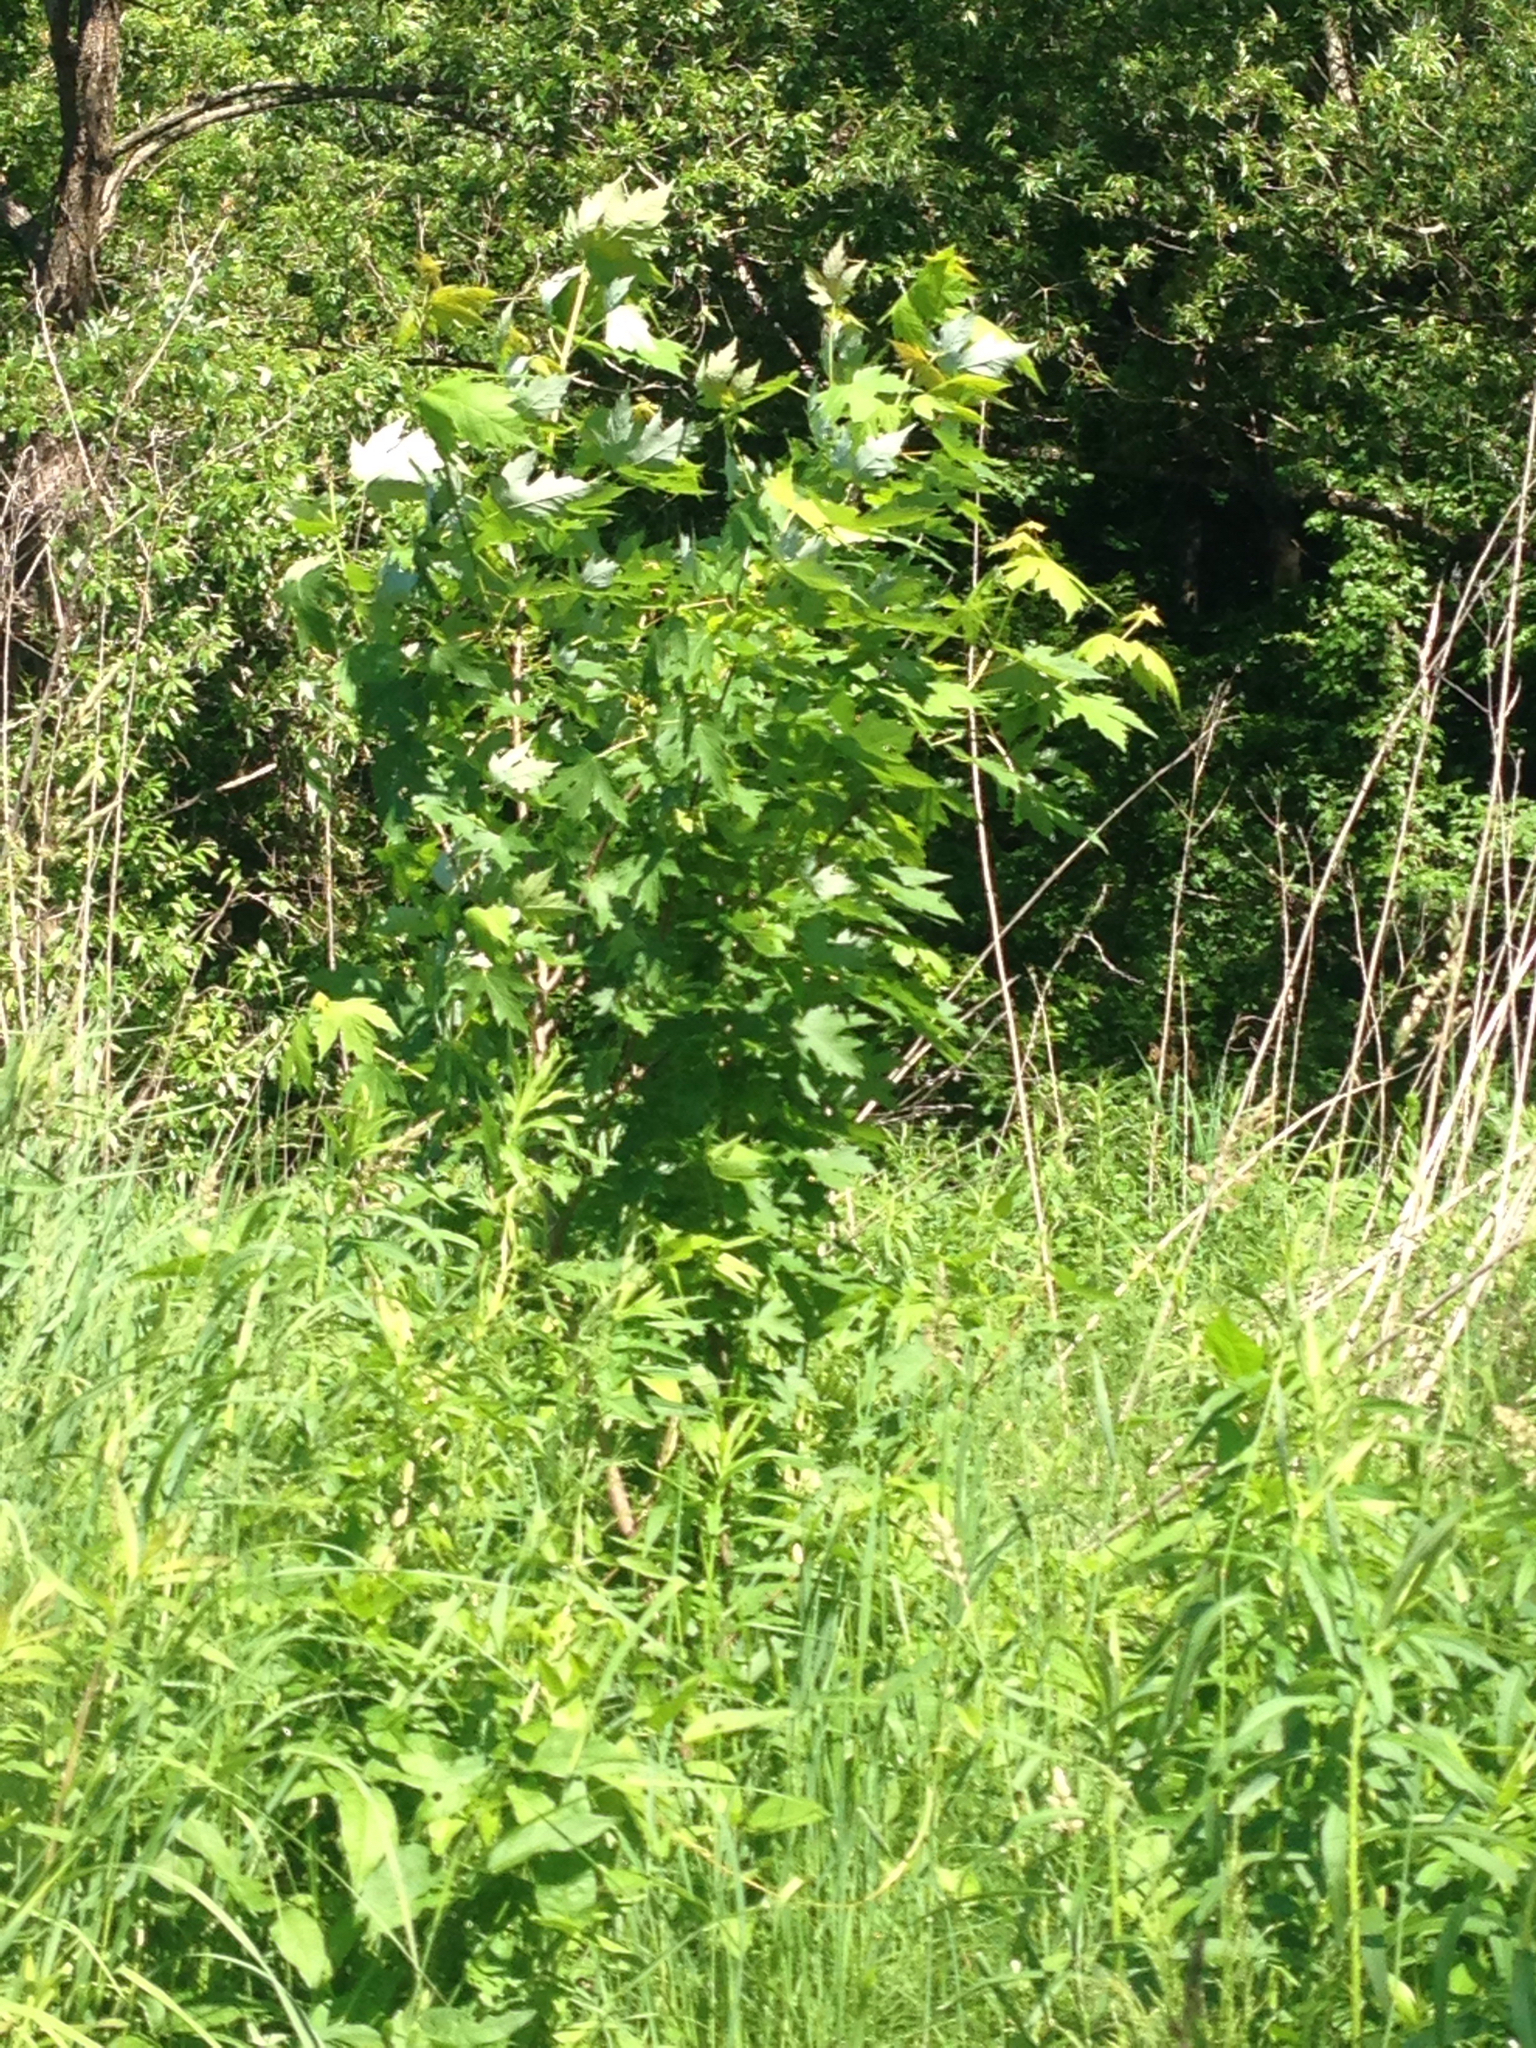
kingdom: Plantae
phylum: Tracheophyta
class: Magnoliopsida
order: Sapindales
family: Sapindaceae
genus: Acer
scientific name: Acer saccharinum
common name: Silver maple
